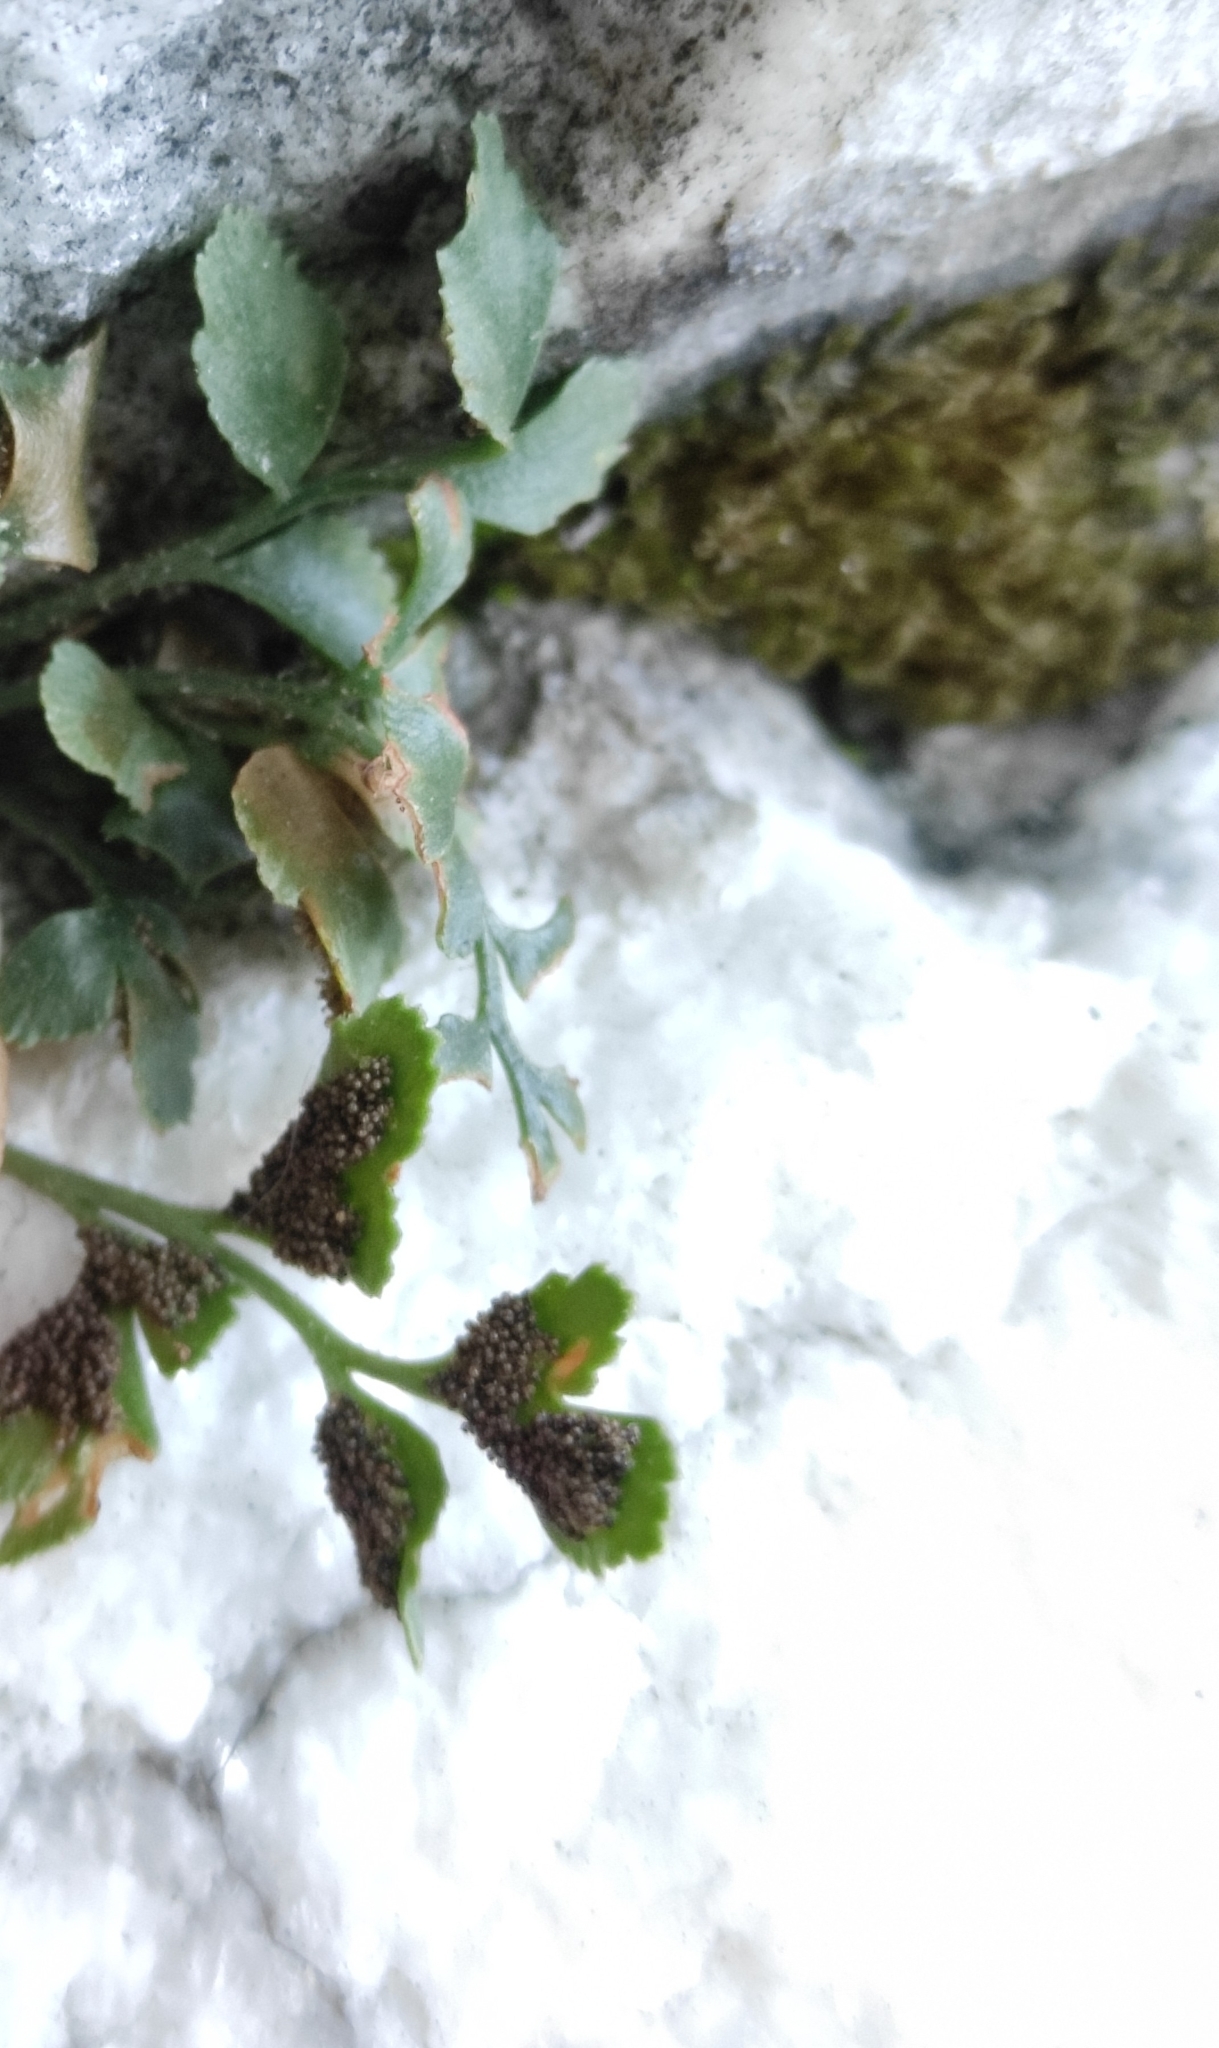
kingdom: Plantae
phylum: Tracheophyta
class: Polypodiopsida
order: Polypodiales
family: Aspleniaceae
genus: Asplenium
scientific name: Asplenium ruta-muraria
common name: Wall-rue
